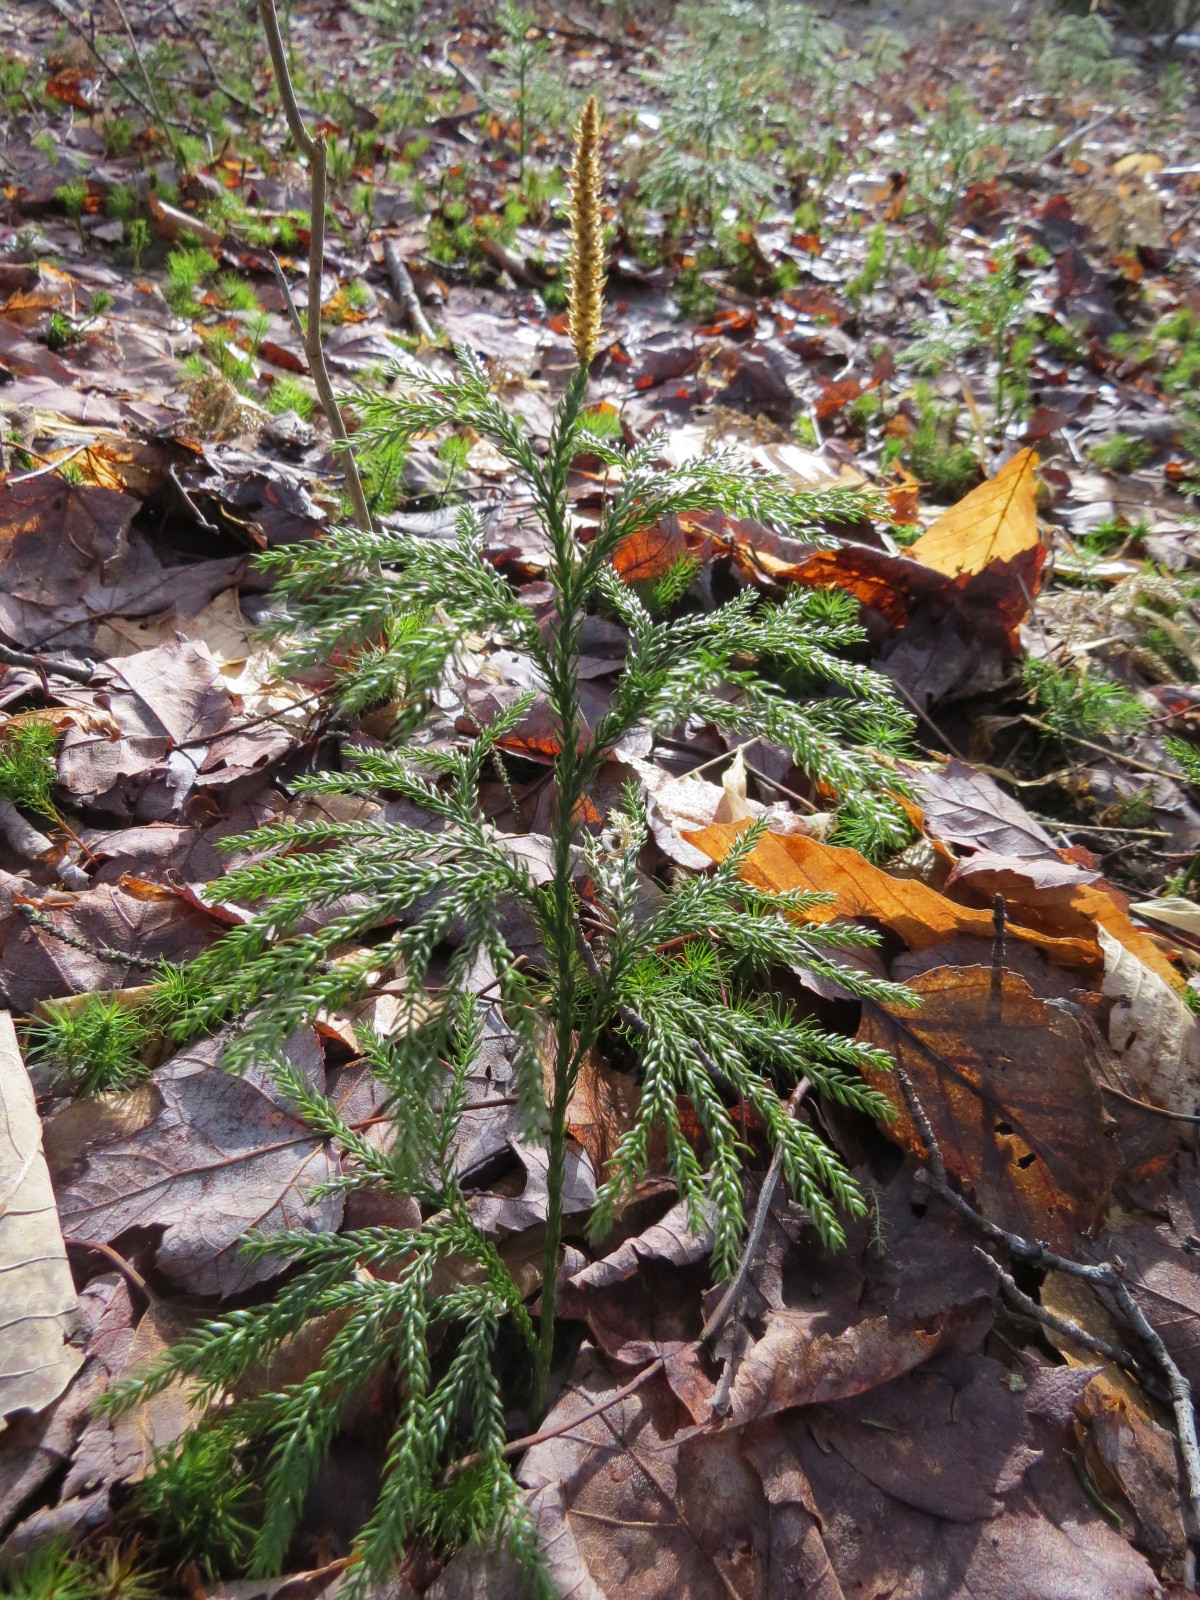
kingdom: Plantae
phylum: Tracheophyta
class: Lycopodiopsida
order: Lycopodiales
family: Lycopodiaceae
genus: Dendrolycopodium
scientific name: Dendrolycopodium obscurum
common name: Common ground-pine
